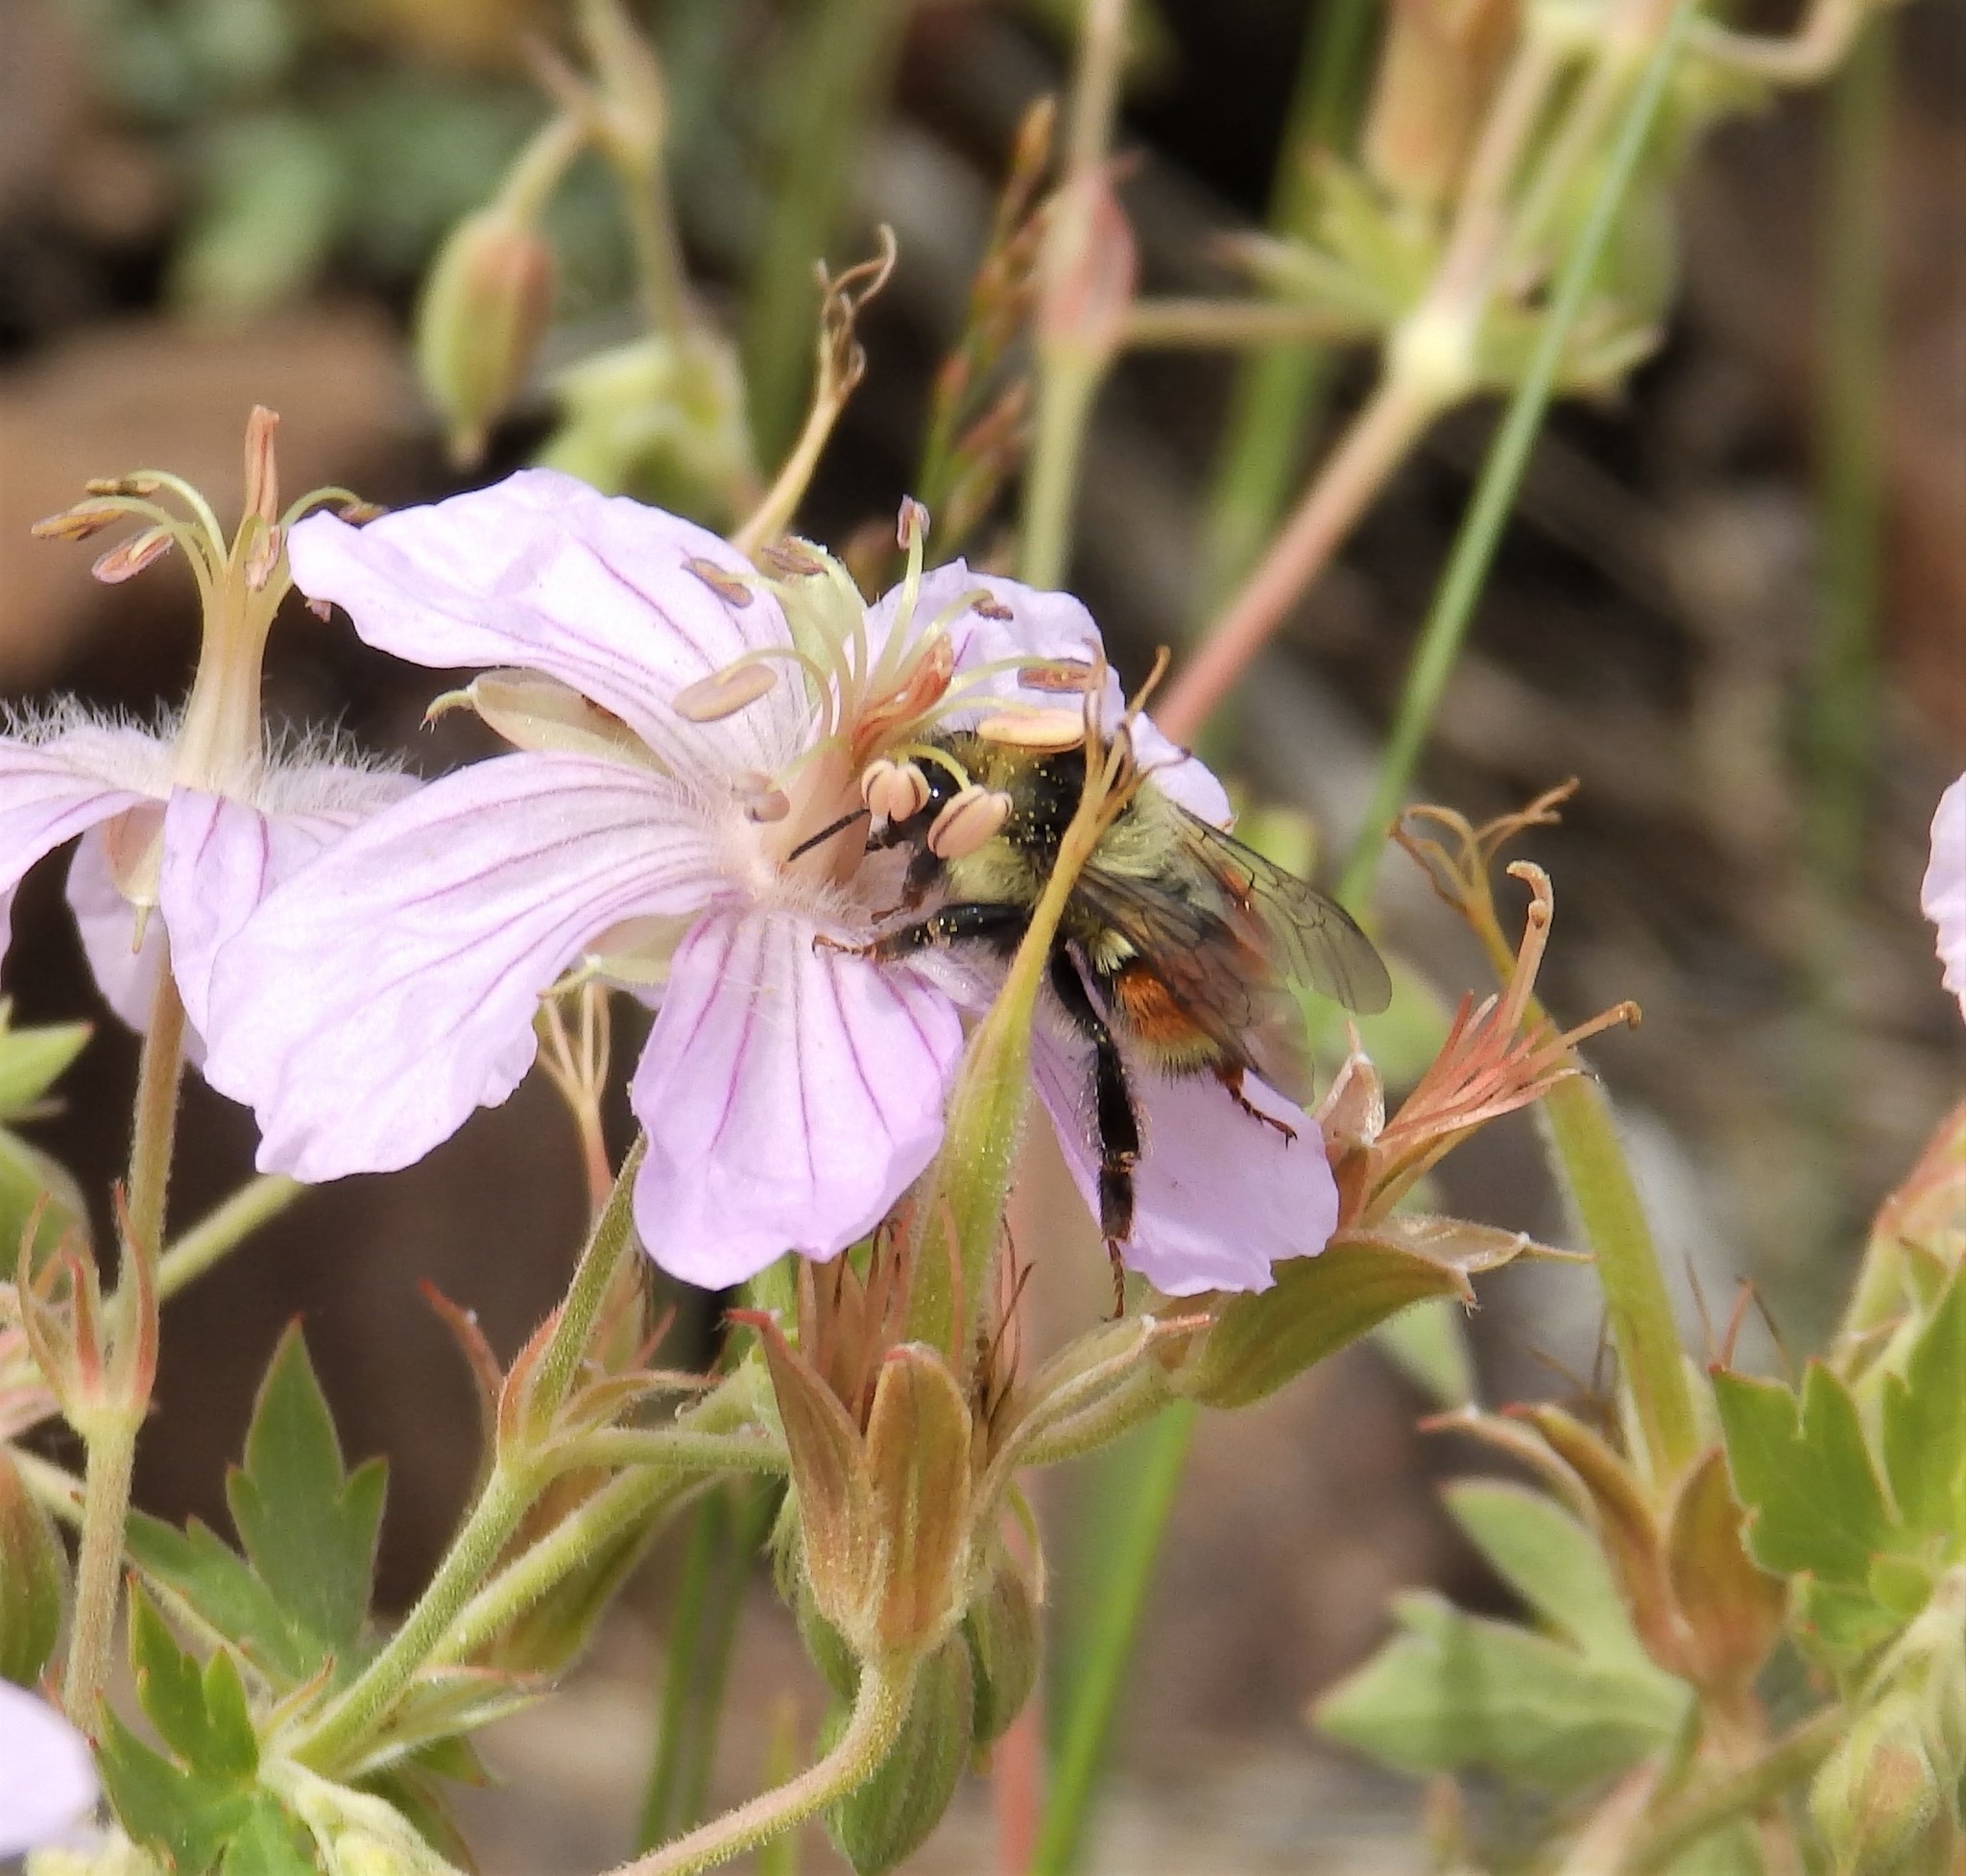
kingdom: Animalia
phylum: Arthropoda
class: Insecta
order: Hymenoptera
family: Apidae
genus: Bombus
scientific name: Bombus bifarius
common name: Two form bumble bee
